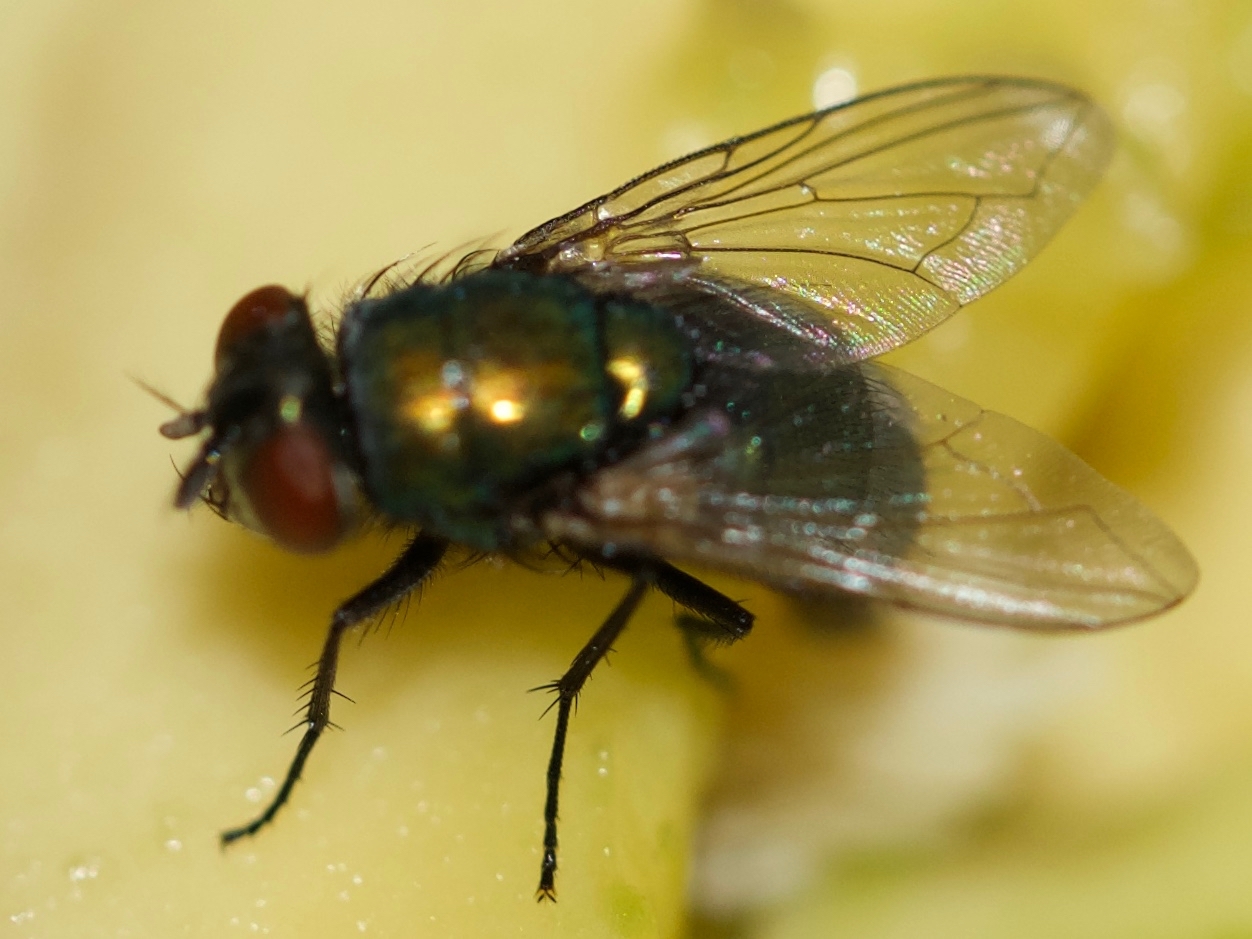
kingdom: Animalia
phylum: Arthropoda
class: Insecta
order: Diptera
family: Calliphoridae
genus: Lucilia
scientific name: Lucilia
